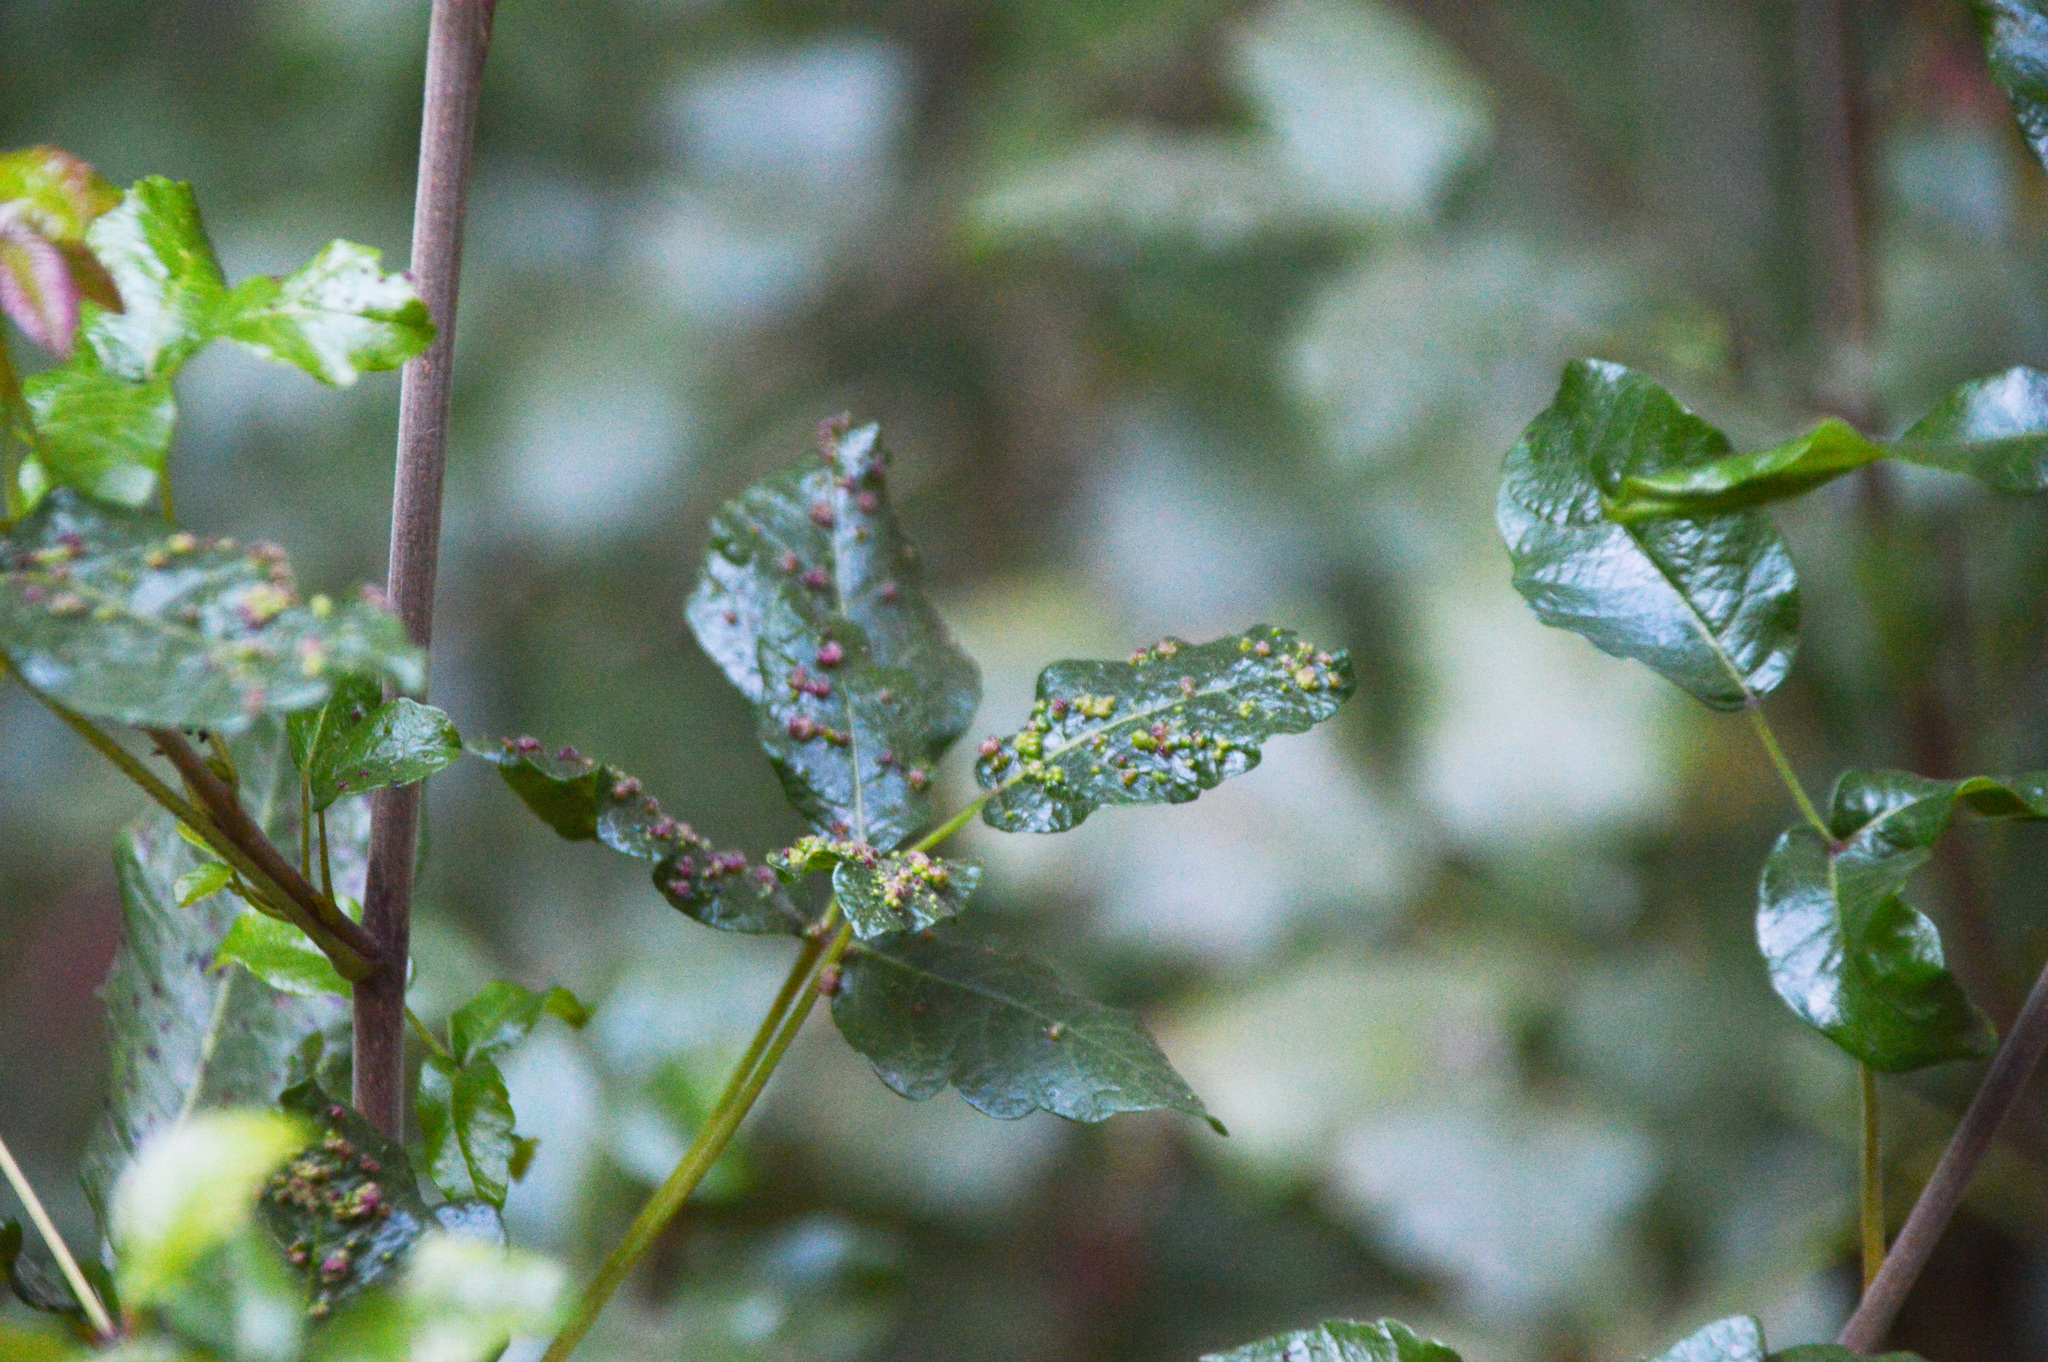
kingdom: Animalia
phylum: Arthropoda
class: Arachnida
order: Trombidiformes
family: Eriophyidae
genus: Aculops
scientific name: Aculops
